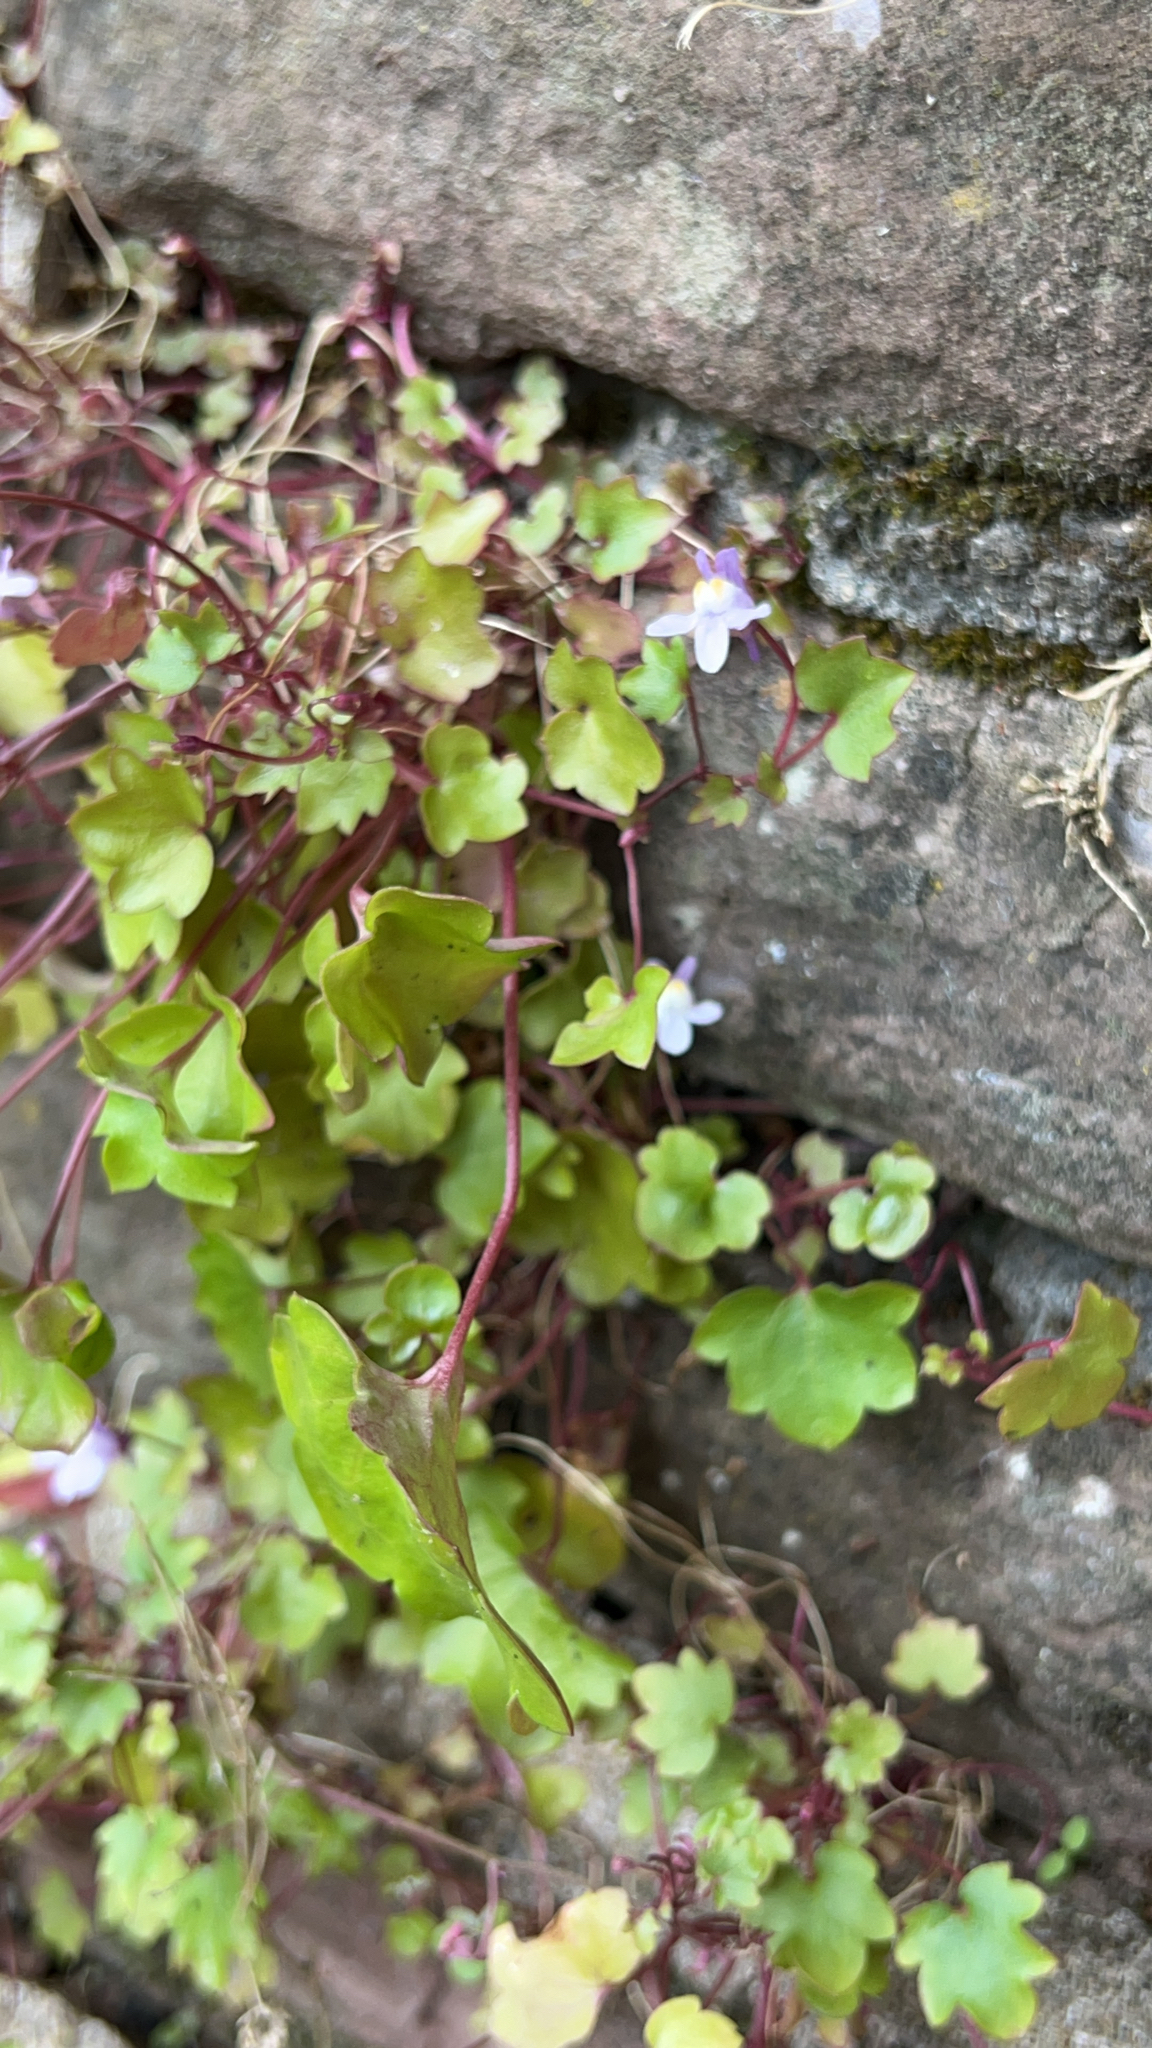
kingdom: Plantae
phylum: Tracheophyta
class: Magnoliopsida
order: Lamiales
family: Plantaginaceae
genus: Cymbalaria
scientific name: Cymbalaria muralis
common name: Ivy-leaved toadflax
